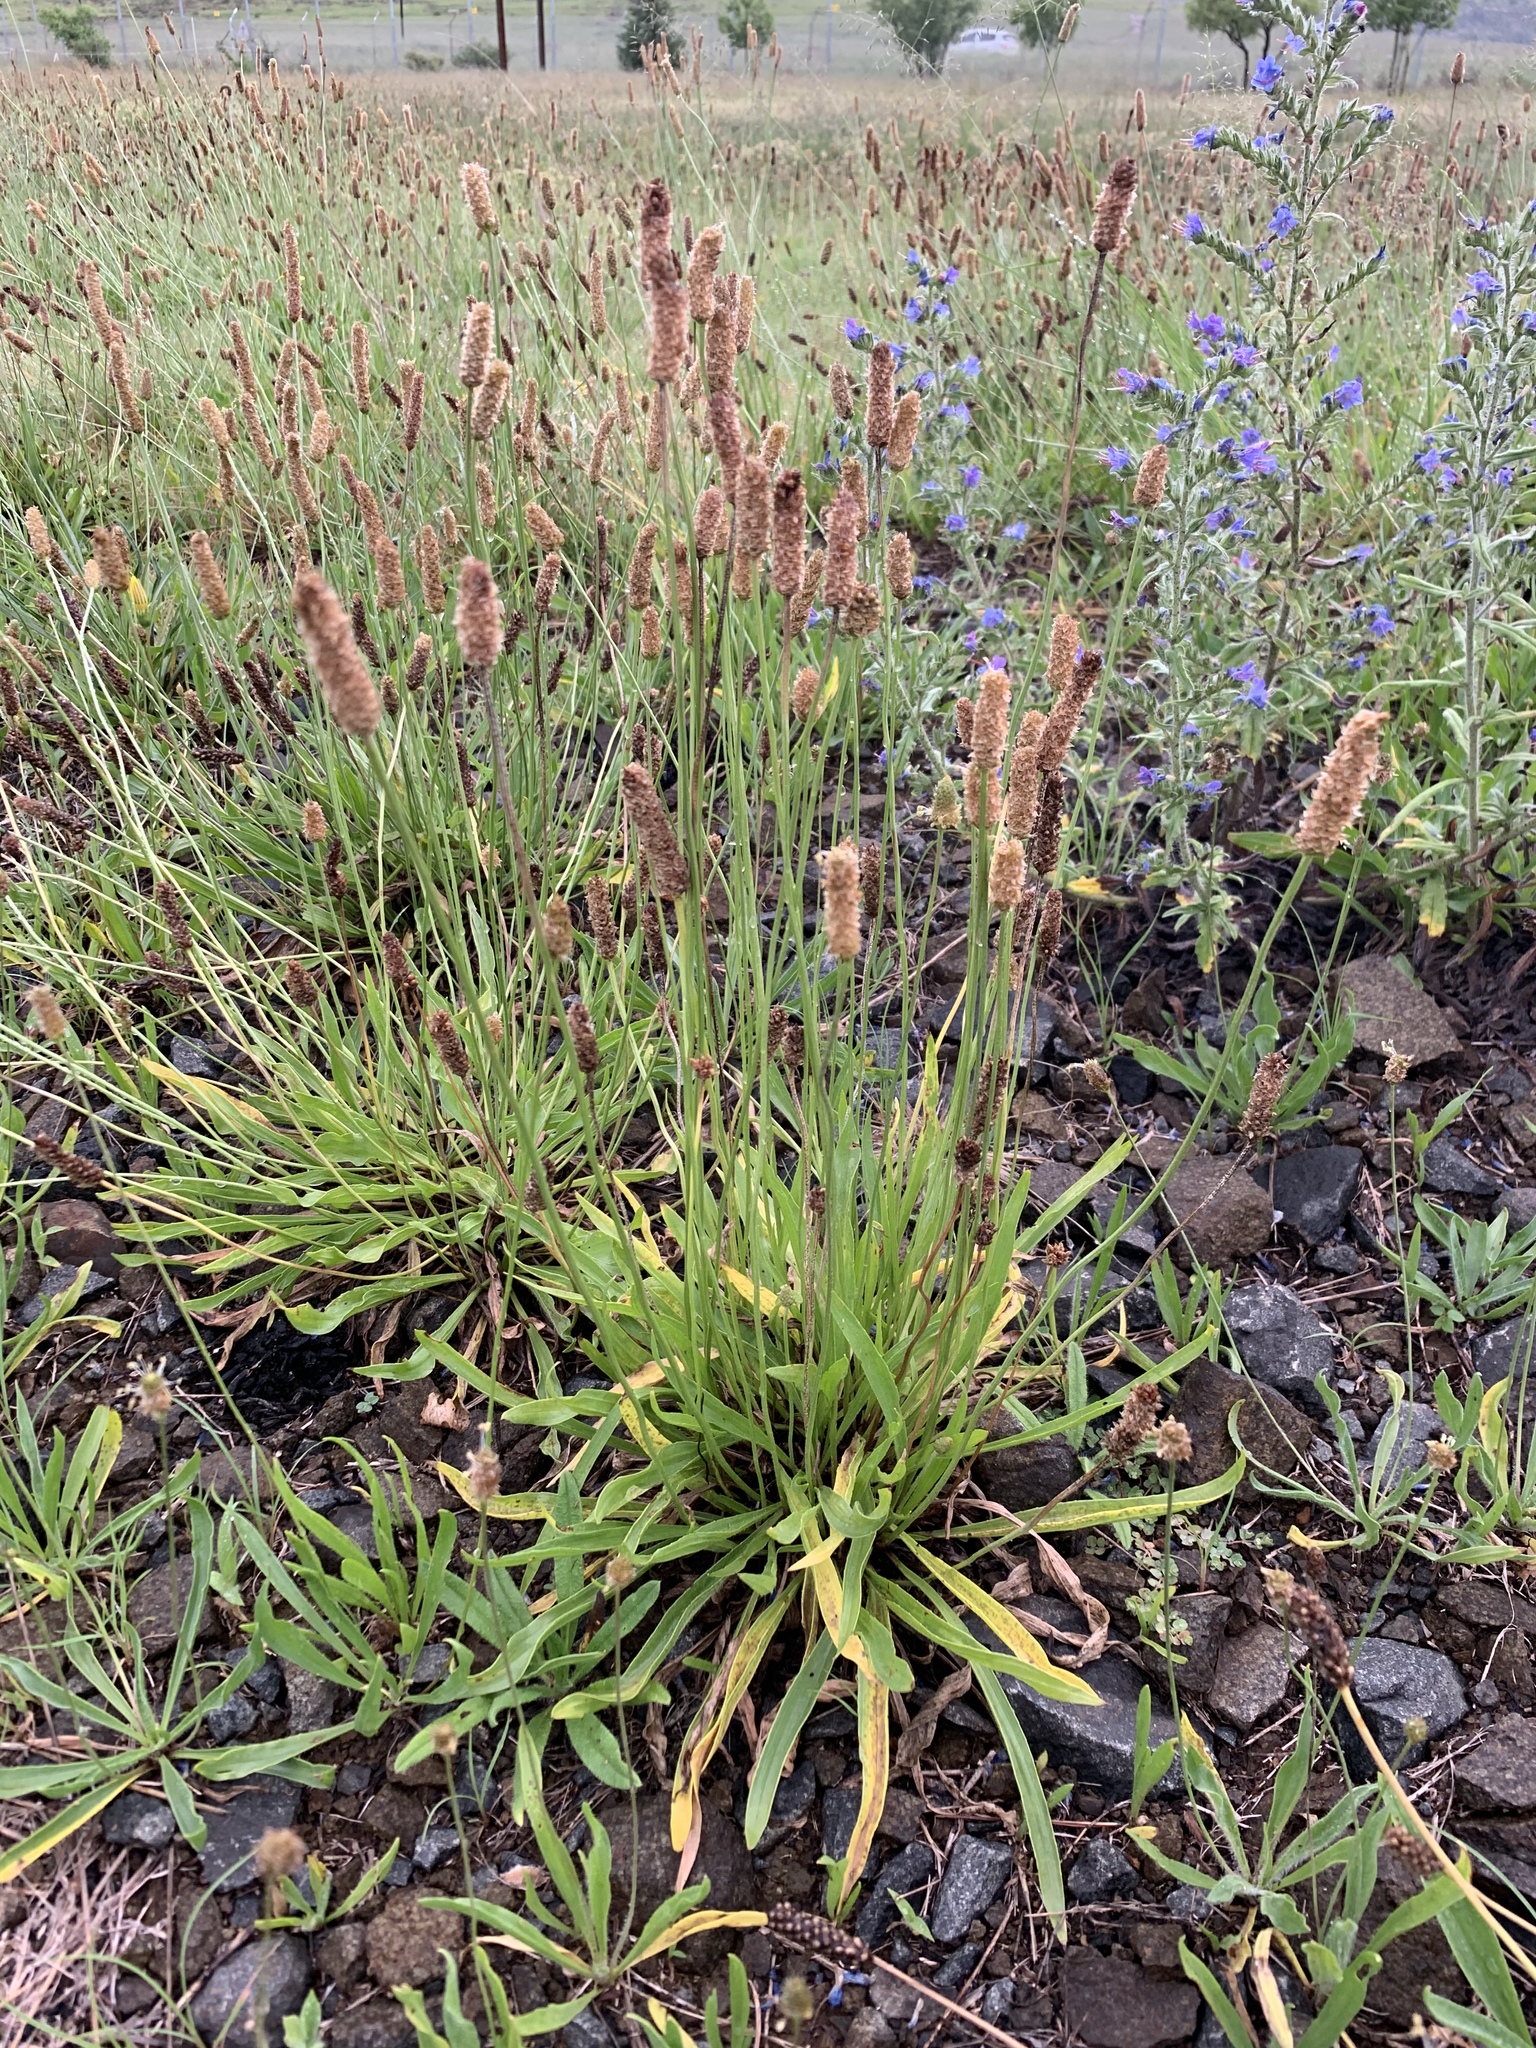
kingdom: Plantae
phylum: Tracheophyta
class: Magnoliopsida
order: Lamiales
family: Plantaginaceae
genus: Plantago
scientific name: Plantago lanceolata
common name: Ribwort plantain
